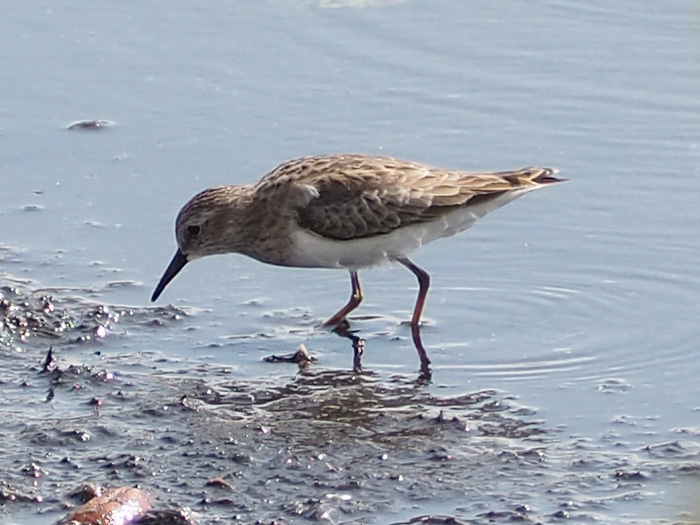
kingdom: Animalia
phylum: Chordata
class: Aves
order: Charadriiformes
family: Scolopacidae
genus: Calidris
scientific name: Calidris minutilla
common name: Least sandpiper
